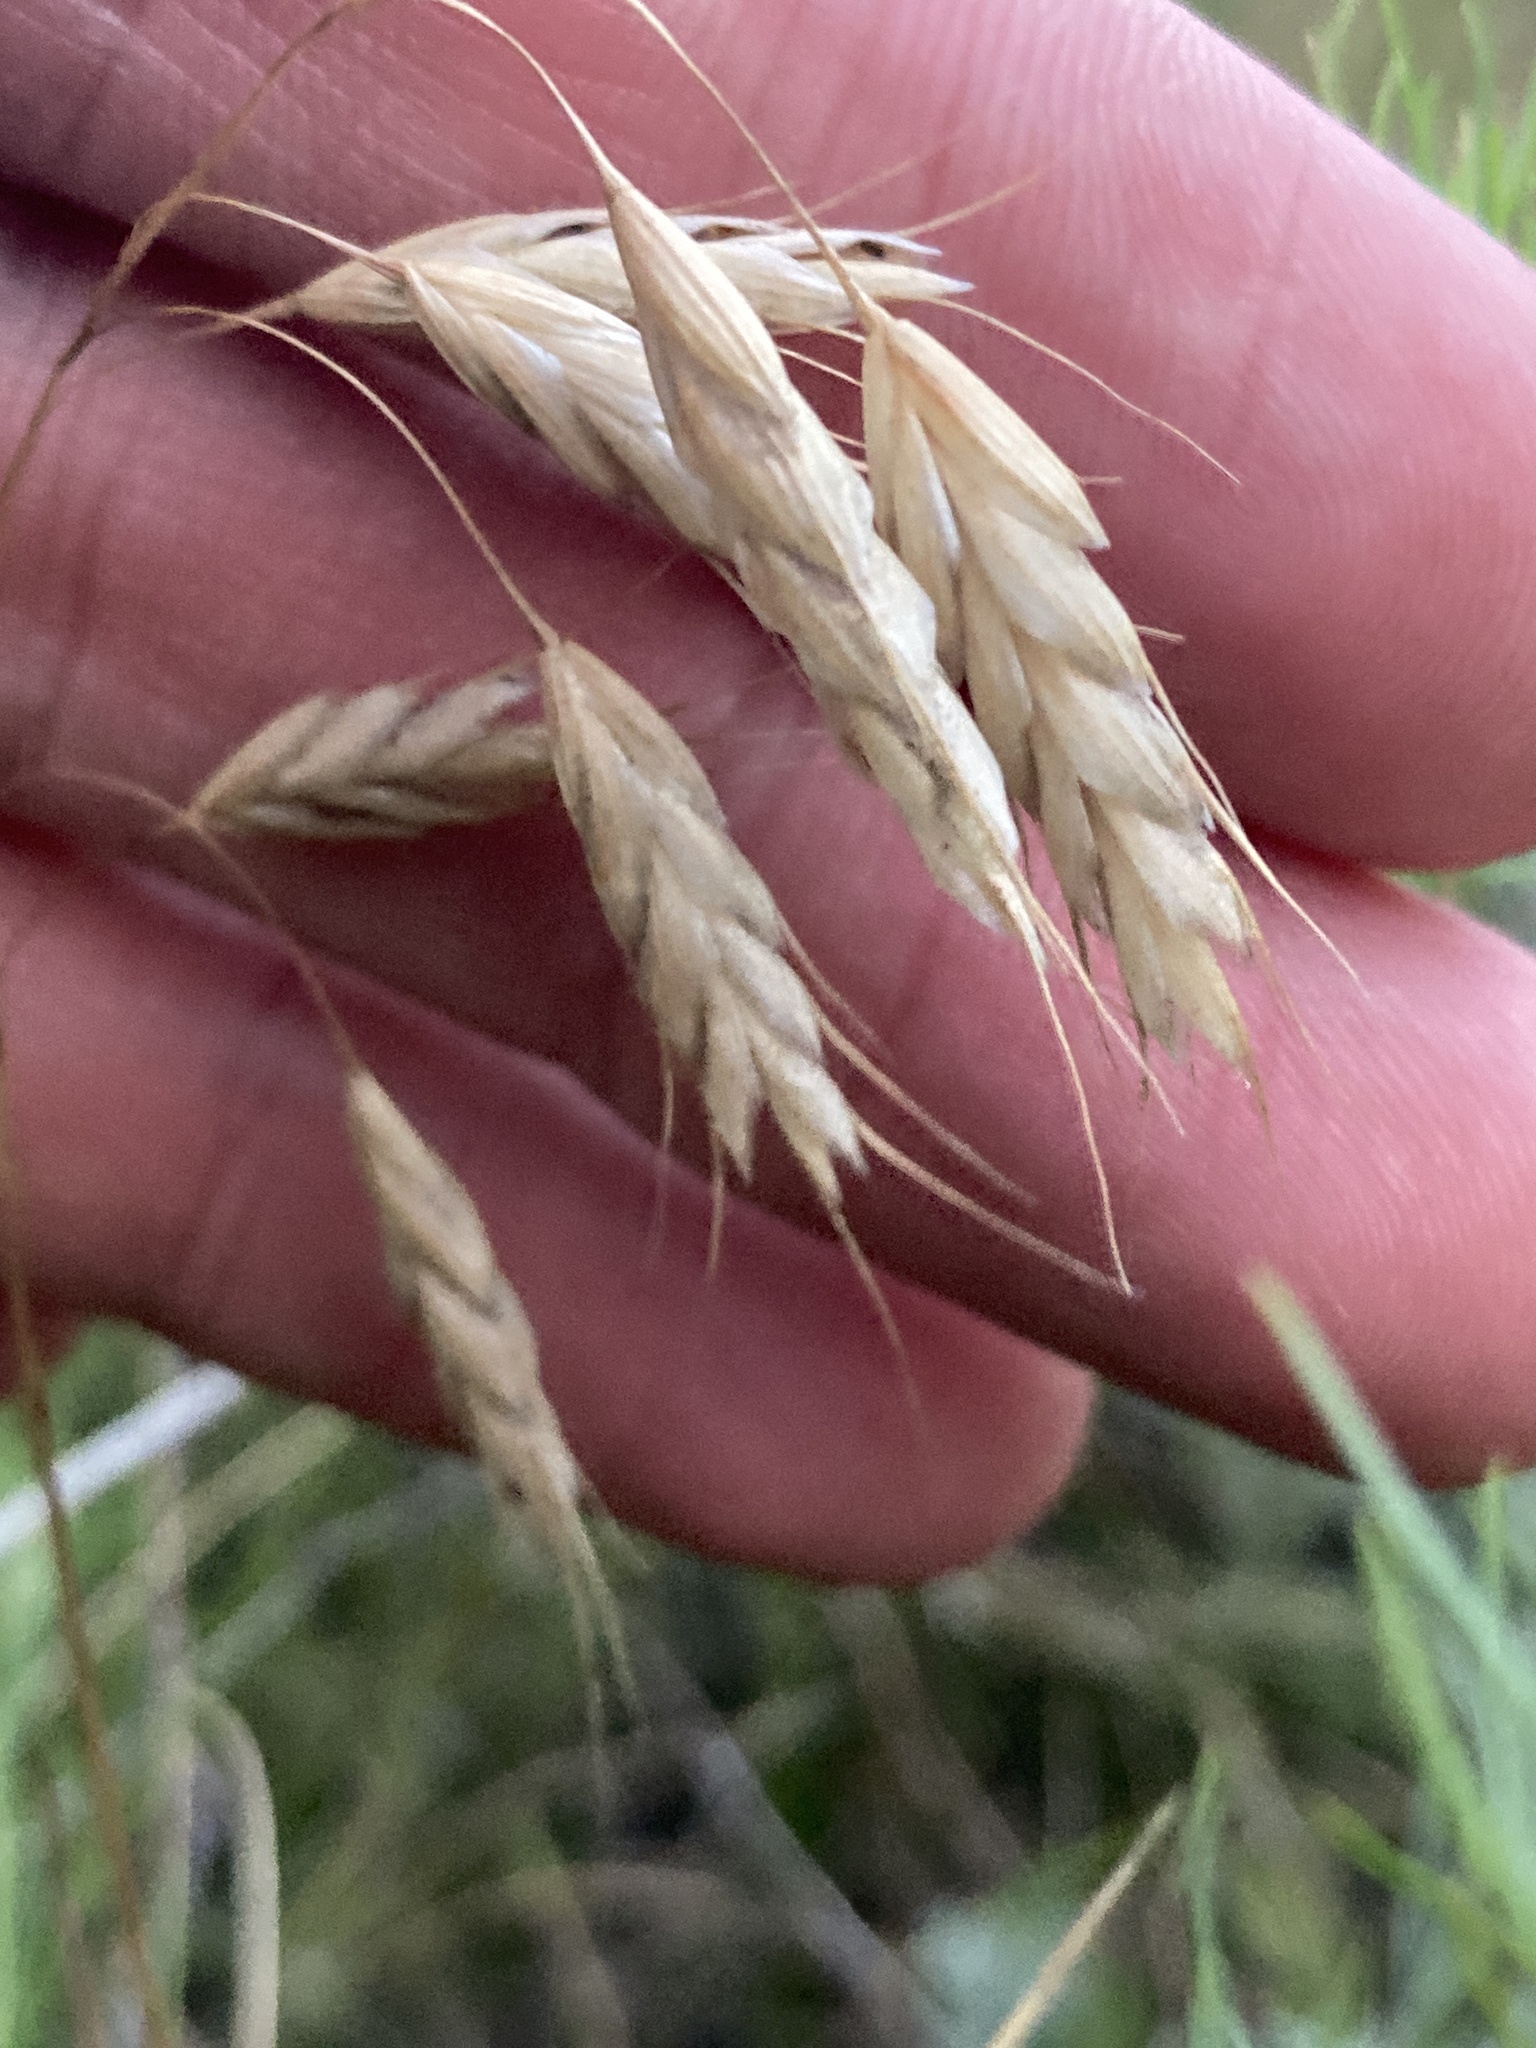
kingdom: Plantae
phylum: Tracheophyta
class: Liliopsida
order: Poales
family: Poaceae
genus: Bromus
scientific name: Bromus squarrosus
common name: Corn brome
